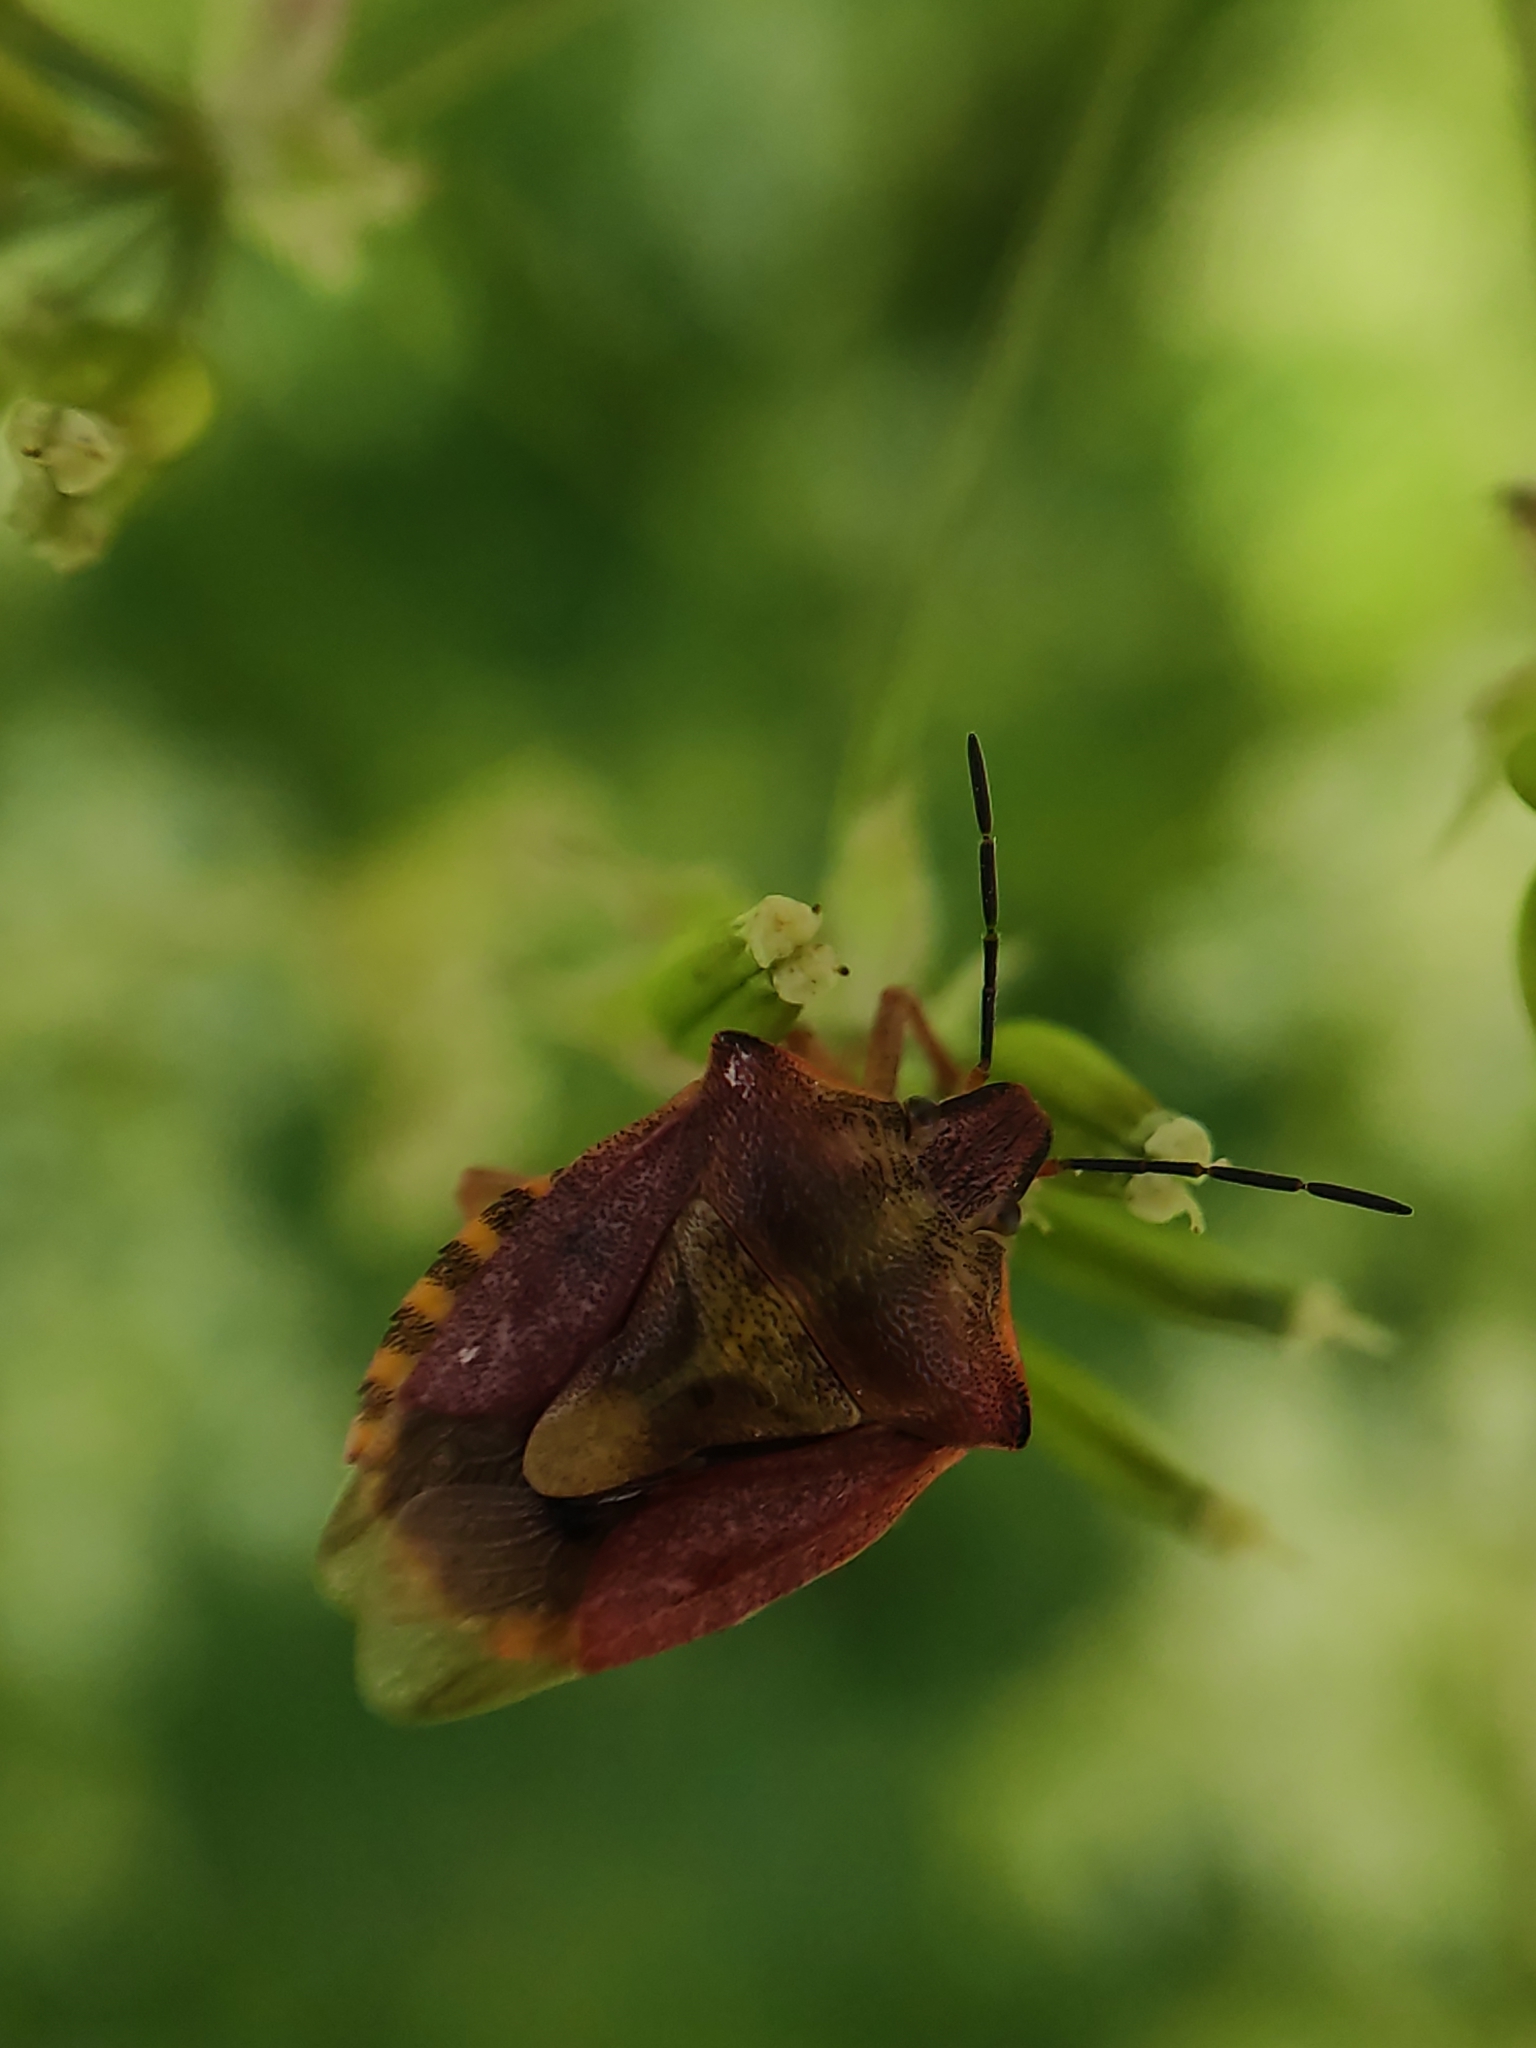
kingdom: Animalia
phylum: Arthropoda
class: Insecta
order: Hemiptera
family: Pentatomidae
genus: Carpocoris
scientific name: Carpocoris purpureipennis
